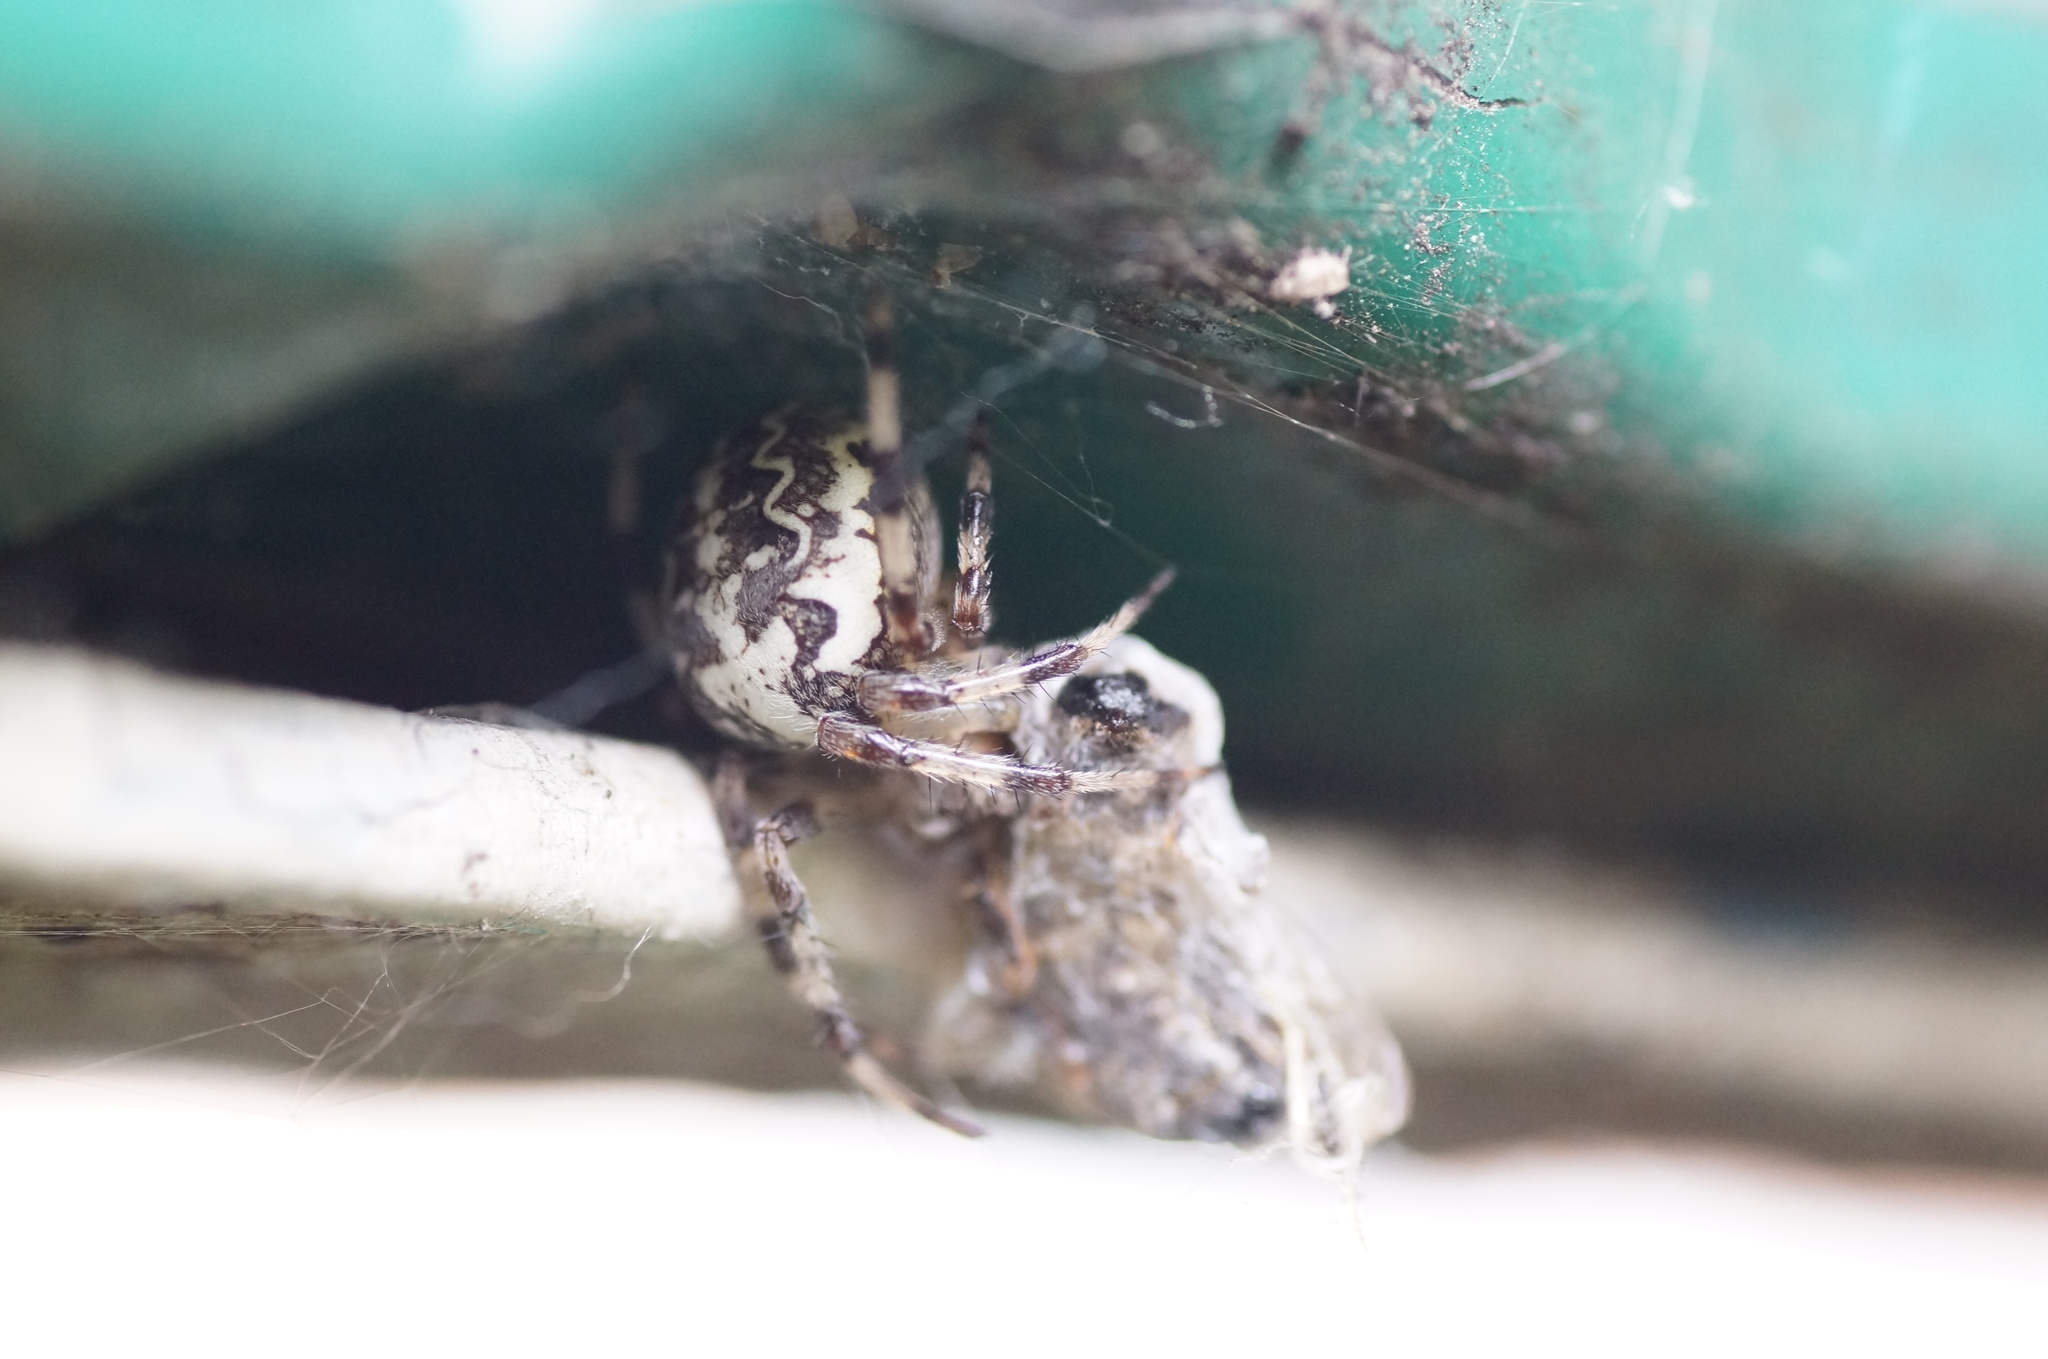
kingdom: Animalia
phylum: Arthropoda
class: Arachnida
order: Araneae
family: Araneidae
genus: Araneus
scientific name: Araneus marmoreus
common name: Marbled orbweaver
